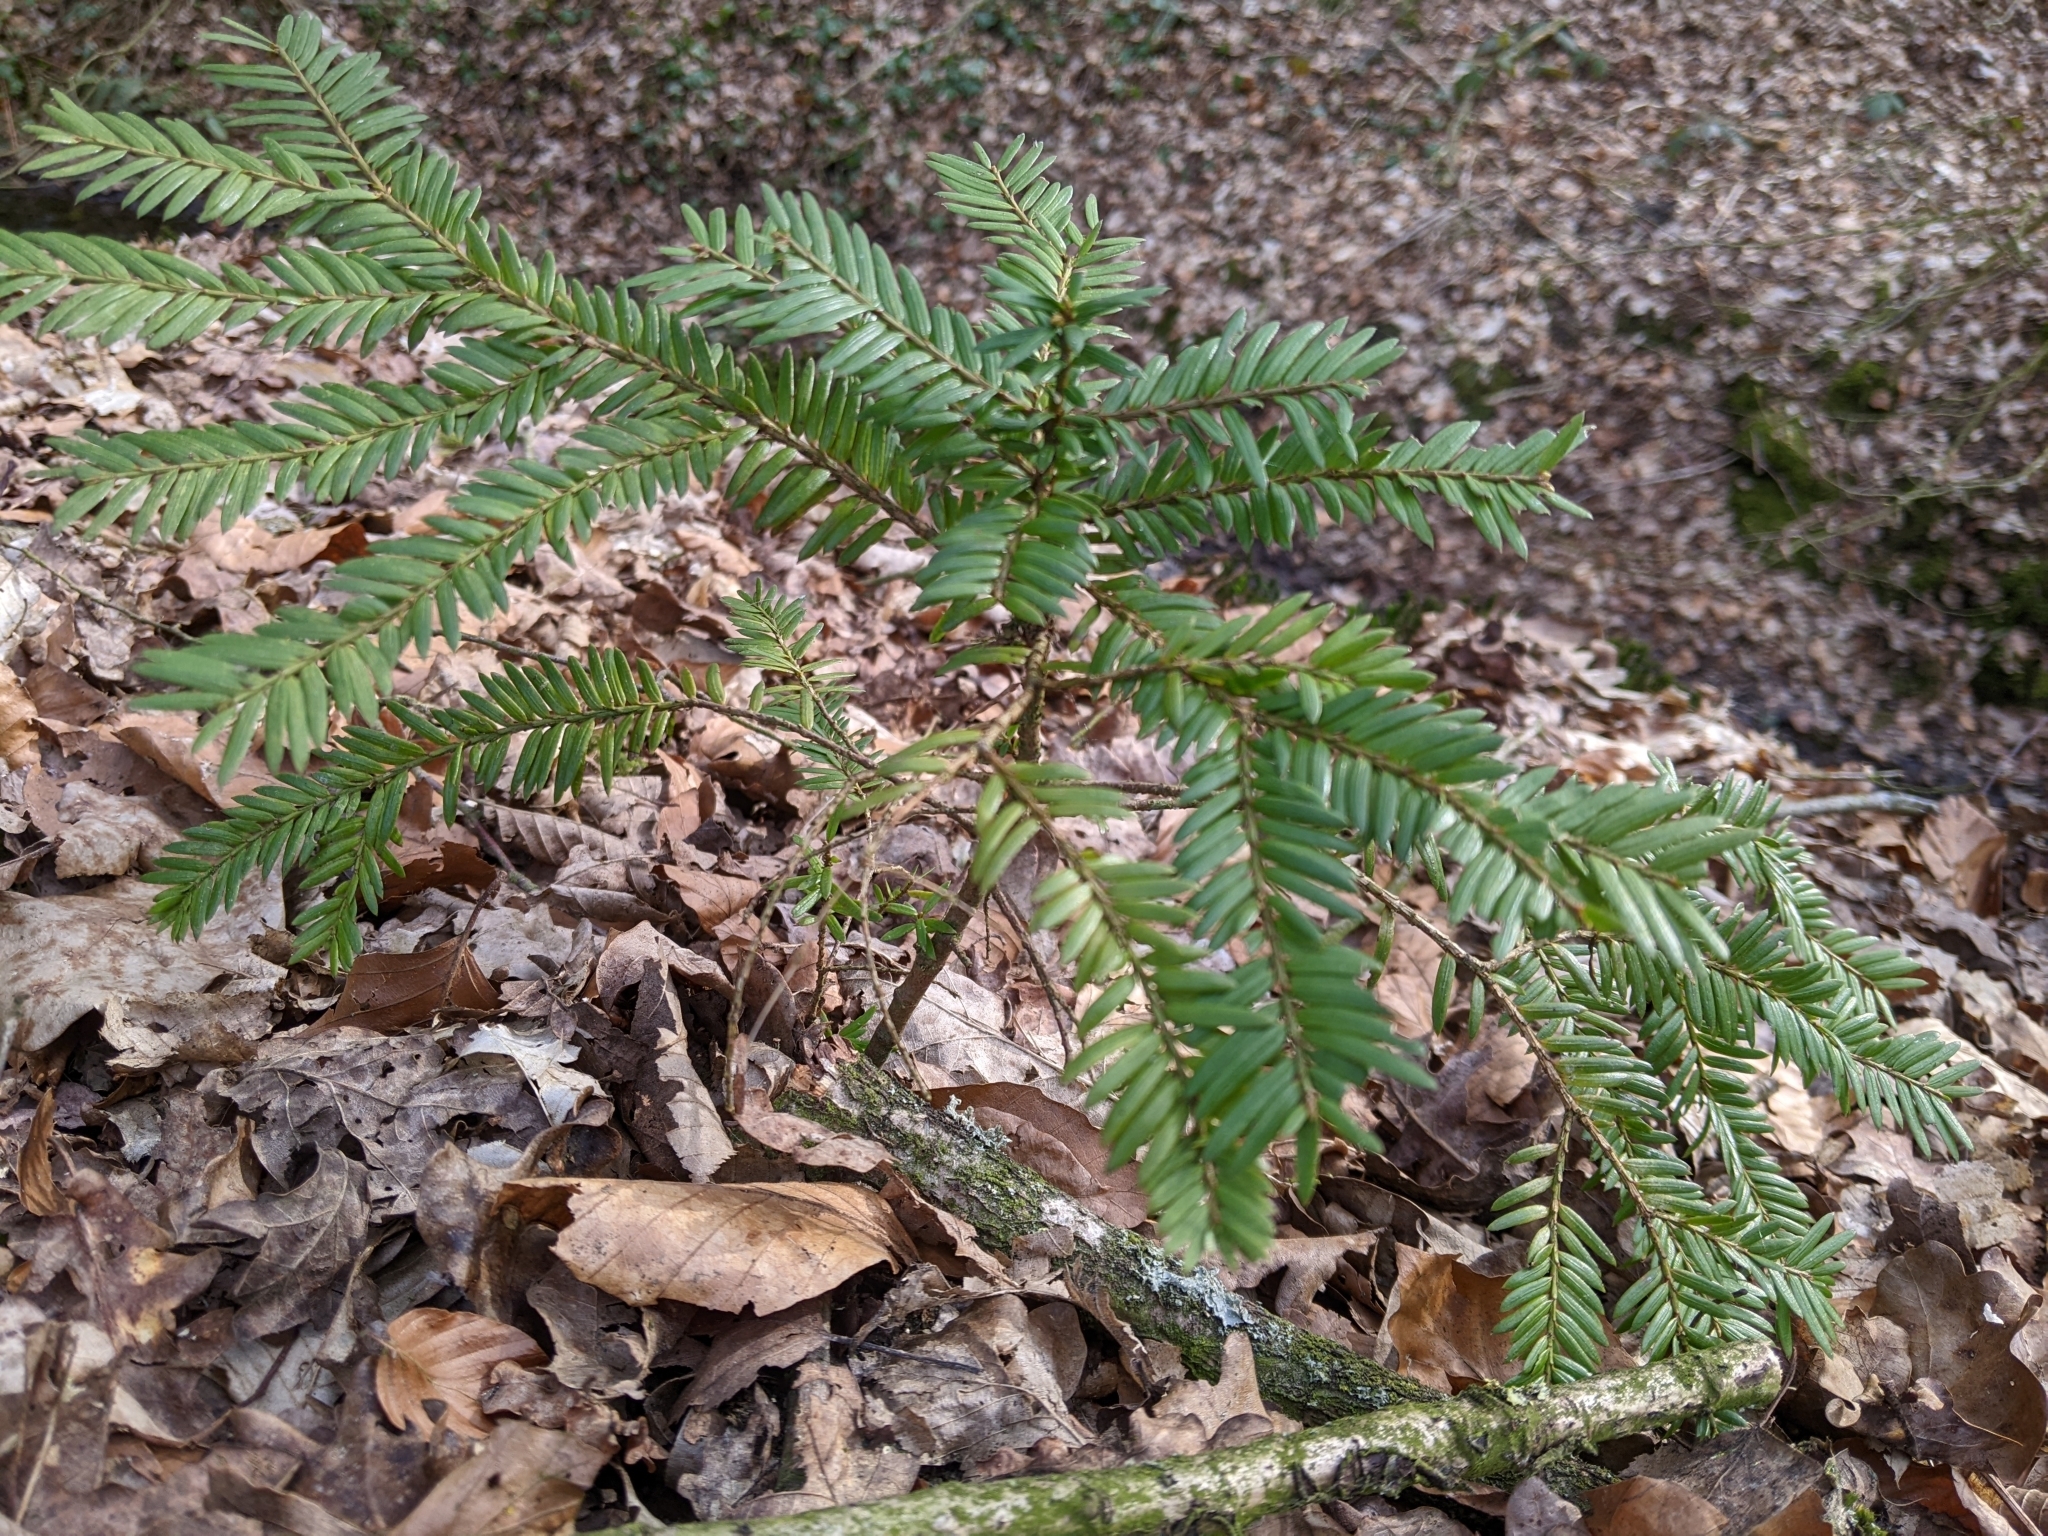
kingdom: Plantae
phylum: Tracheophyta
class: Pinopsida
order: Pinales
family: Taxaceae
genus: Taxus
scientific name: Taxus baccata
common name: Yew
